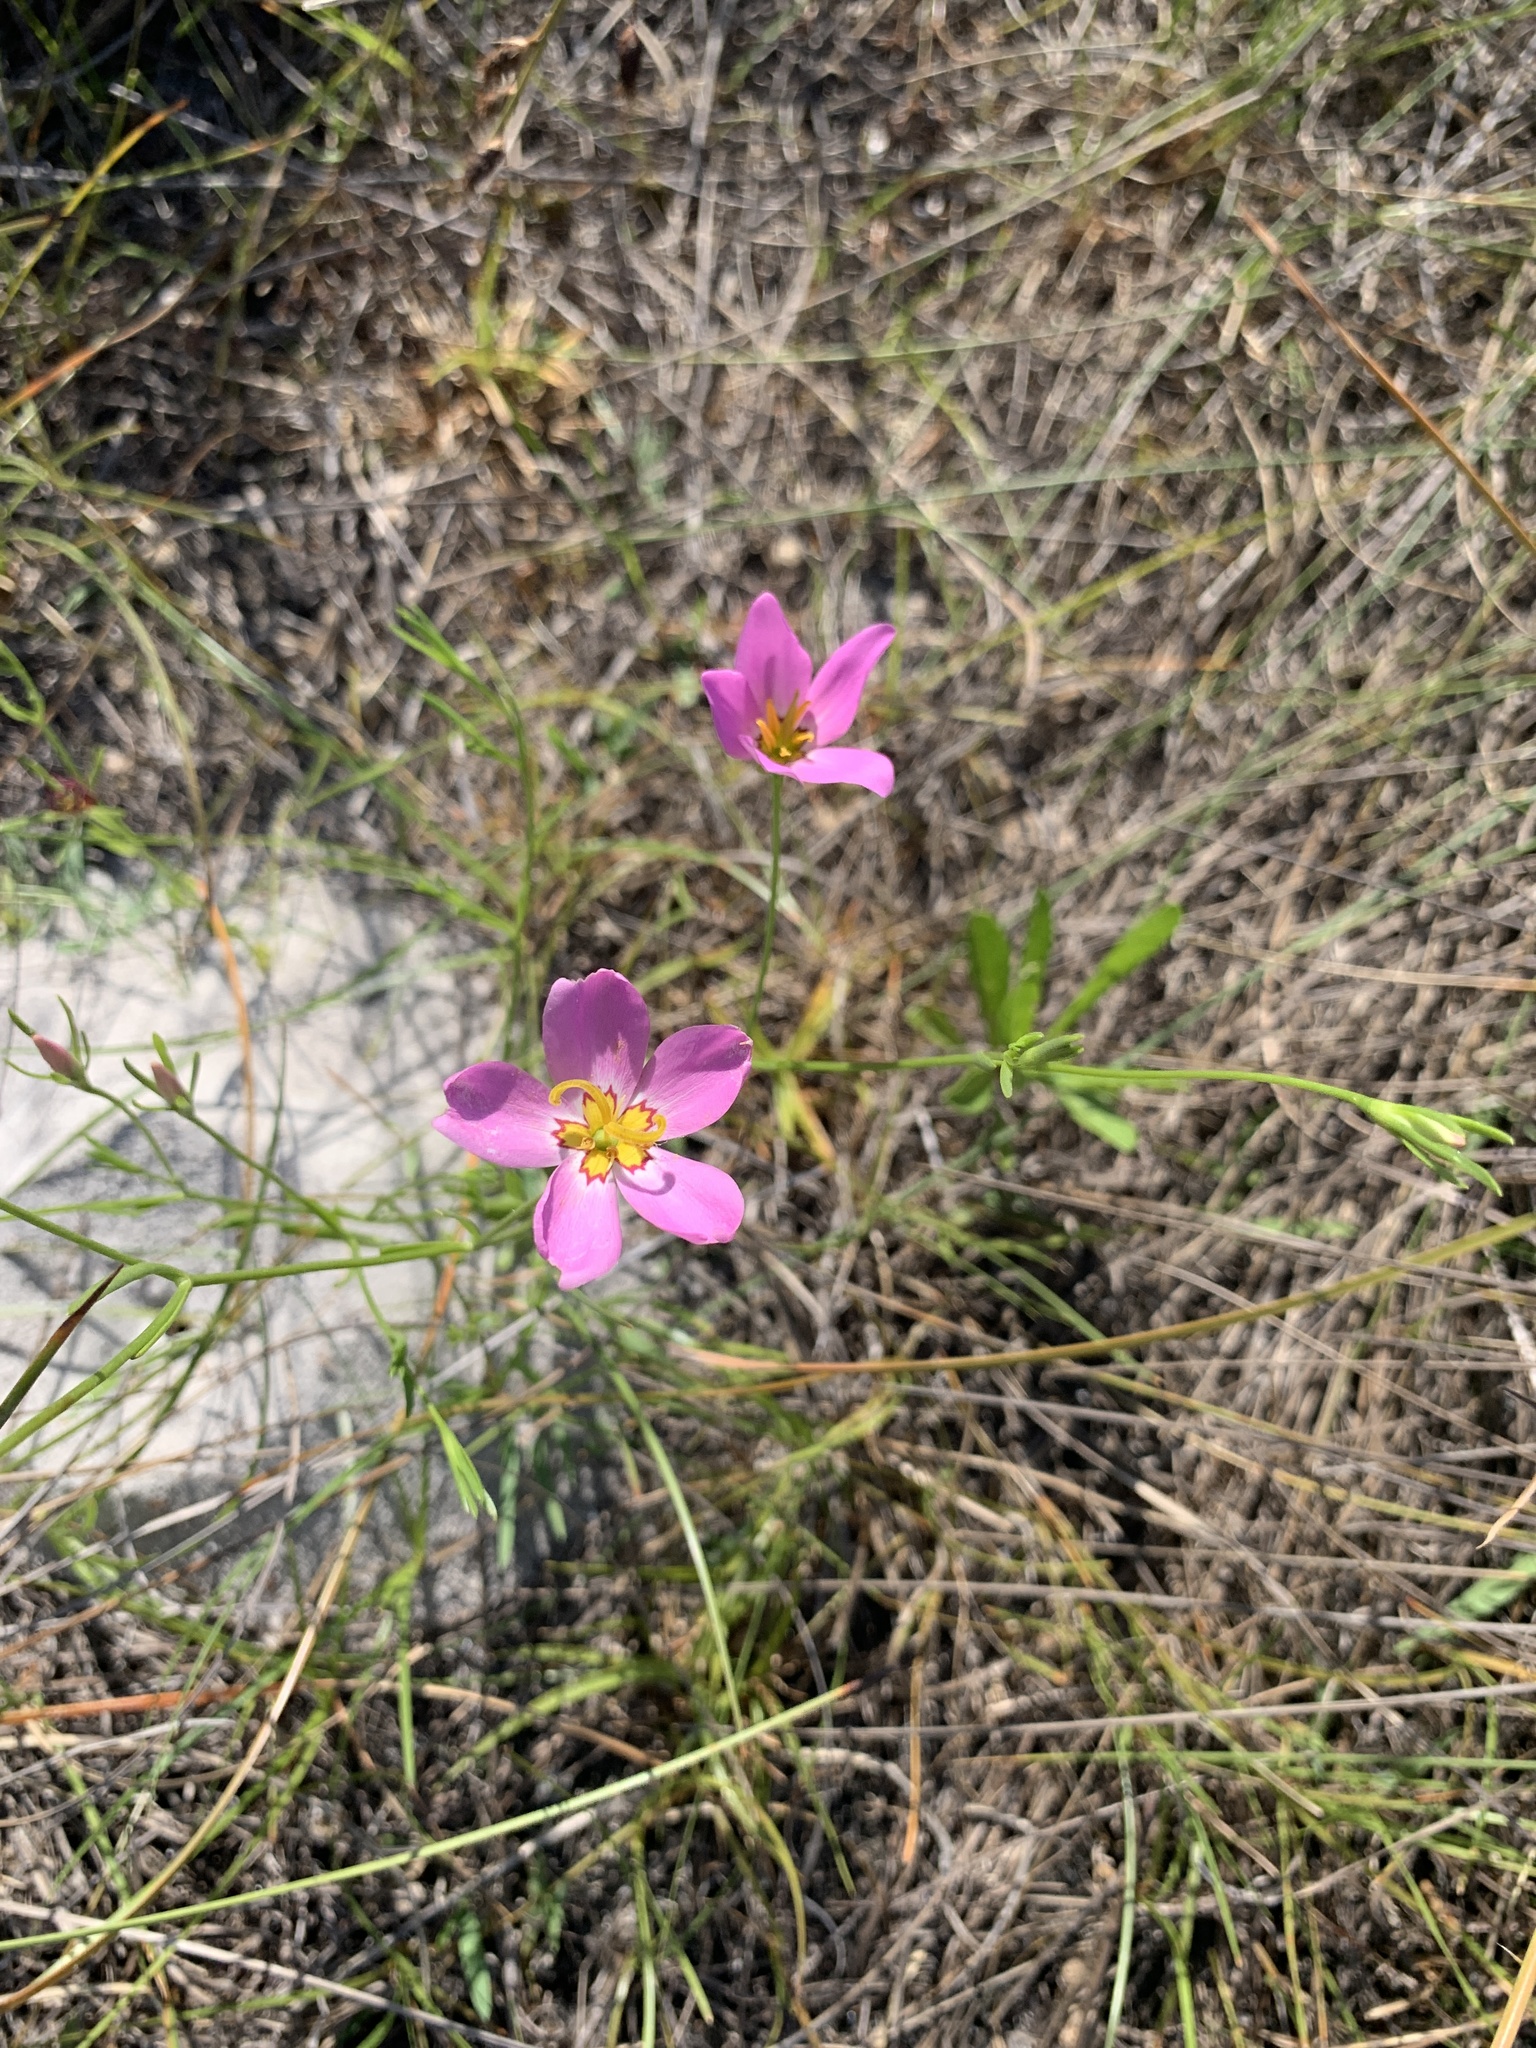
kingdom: Plantae
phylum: Tracheophyta
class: Magnoliopsida
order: Gentianales
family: Gentianaceae
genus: Sabatia
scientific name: Sabatia stellaris
